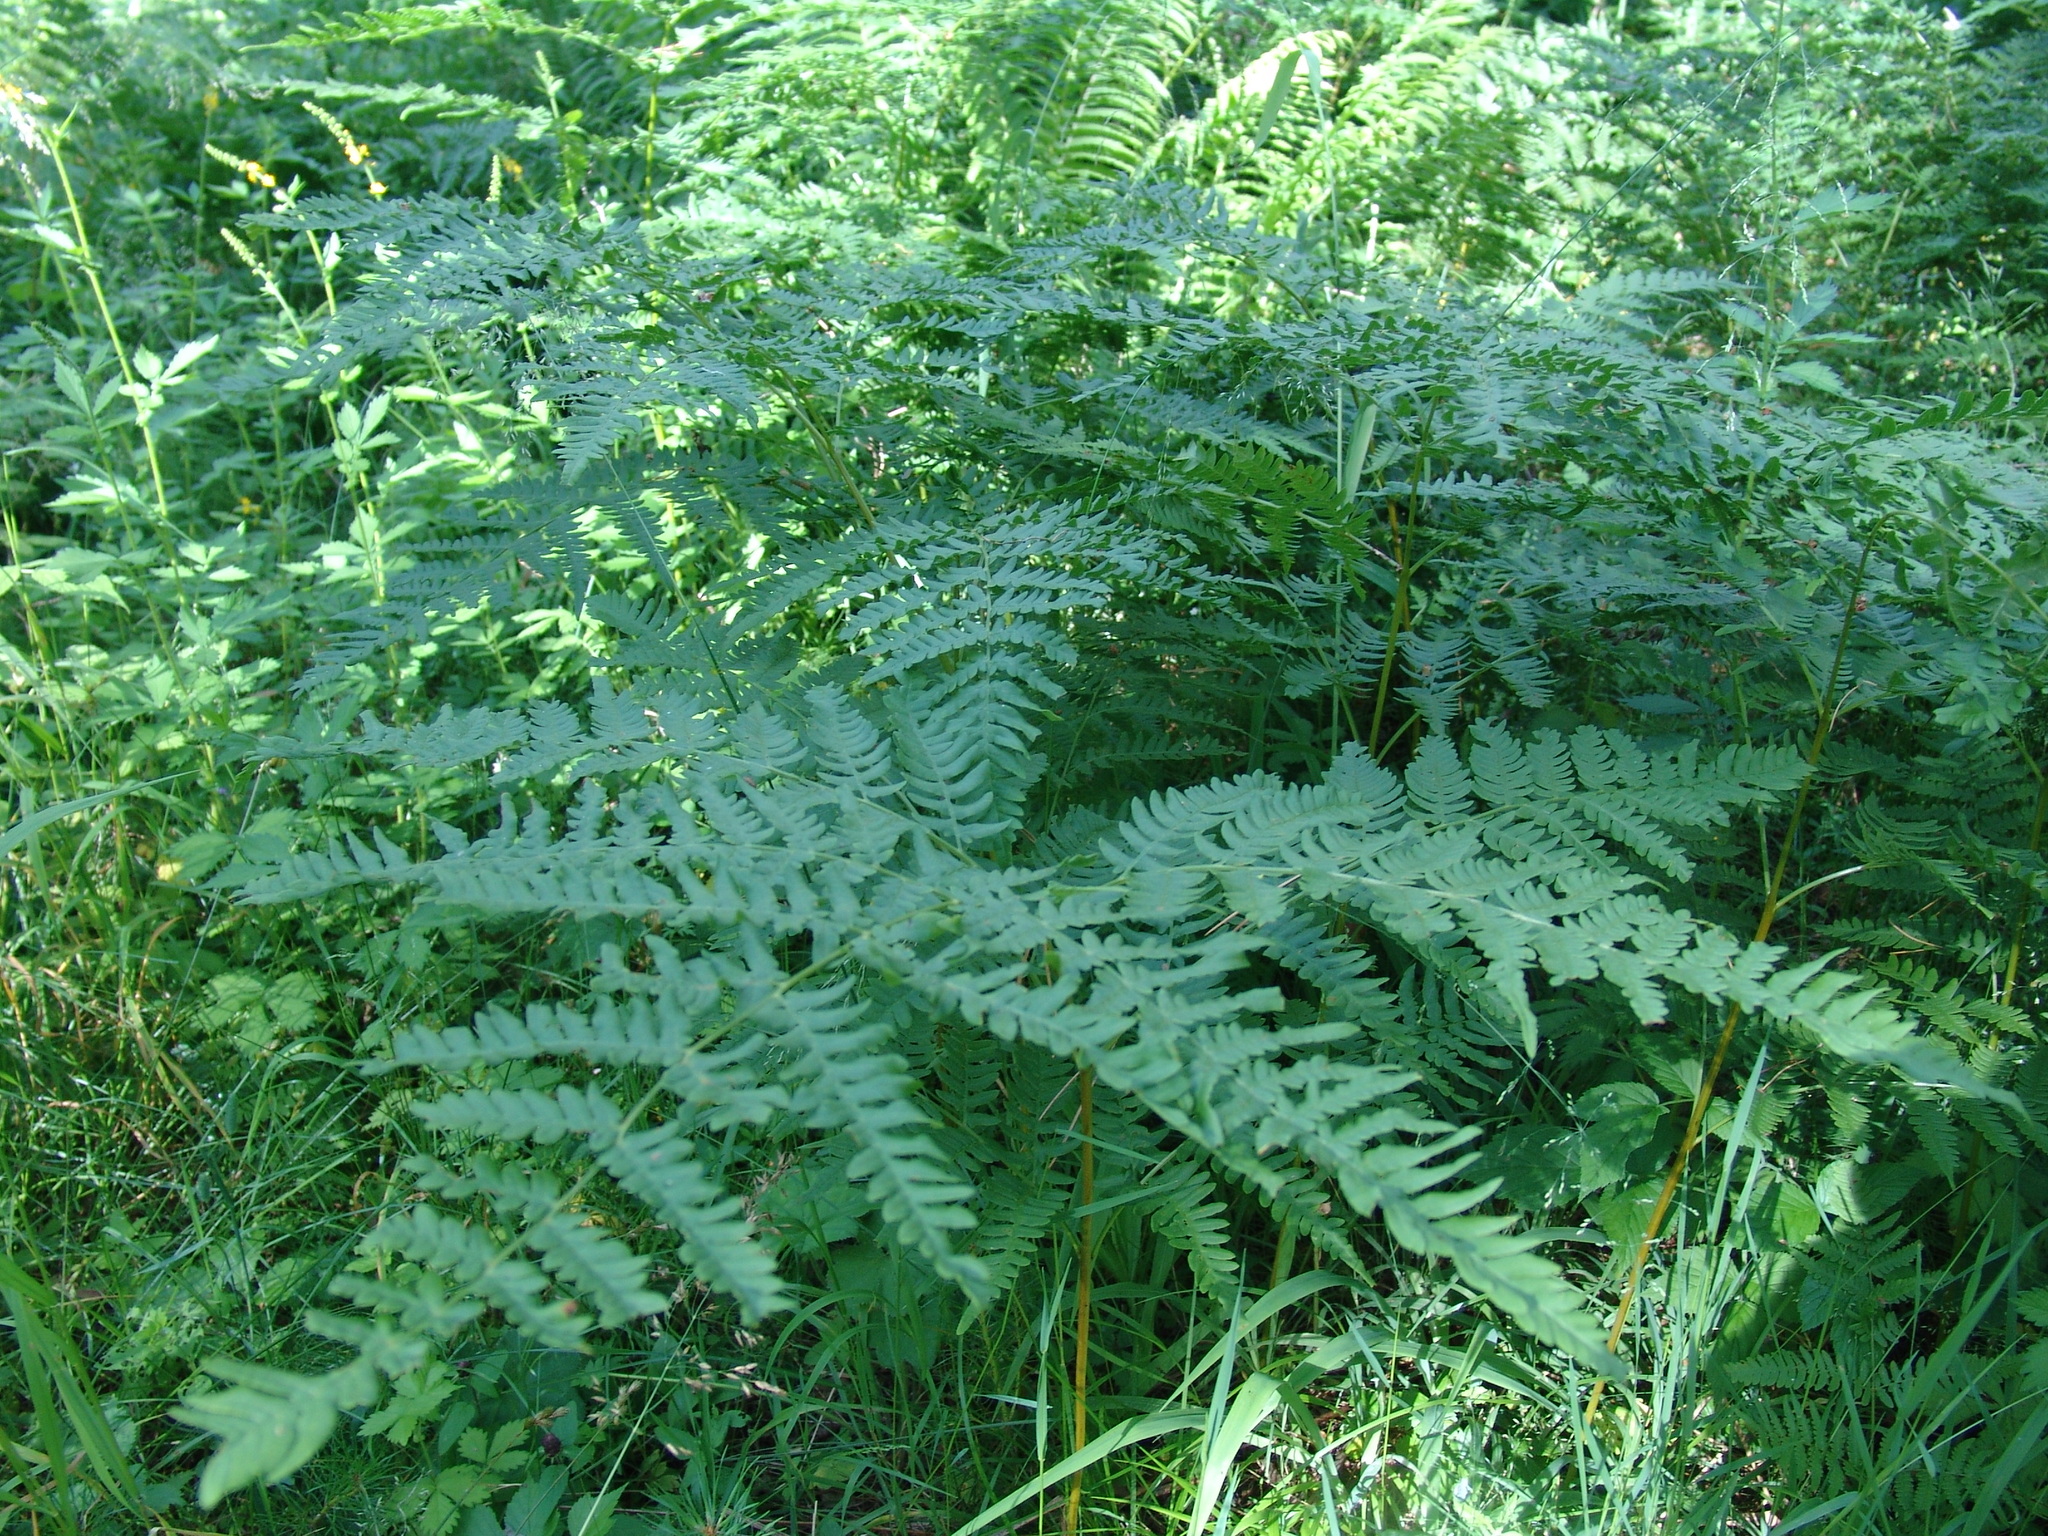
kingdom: Plantae
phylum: Tracheophyta
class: Polypodiopsida
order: Polypodiales
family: Dennstaedtiaceae
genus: Pteridium
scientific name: Pteridium aquilinum
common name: Bracken
